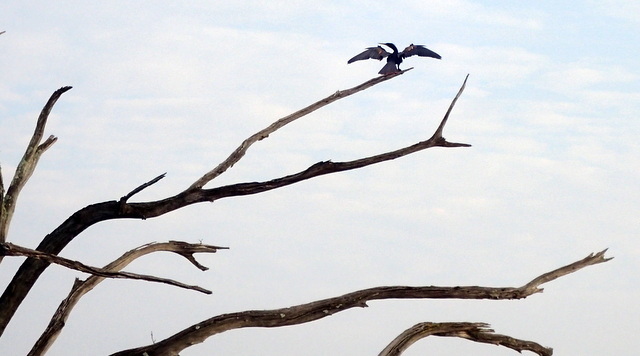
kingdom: Animalia
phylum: Chordata
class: Aves
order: Suliformes
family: Anhingidae
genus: Anhinga
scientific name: Anhinga anhinga
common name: Anhinga
